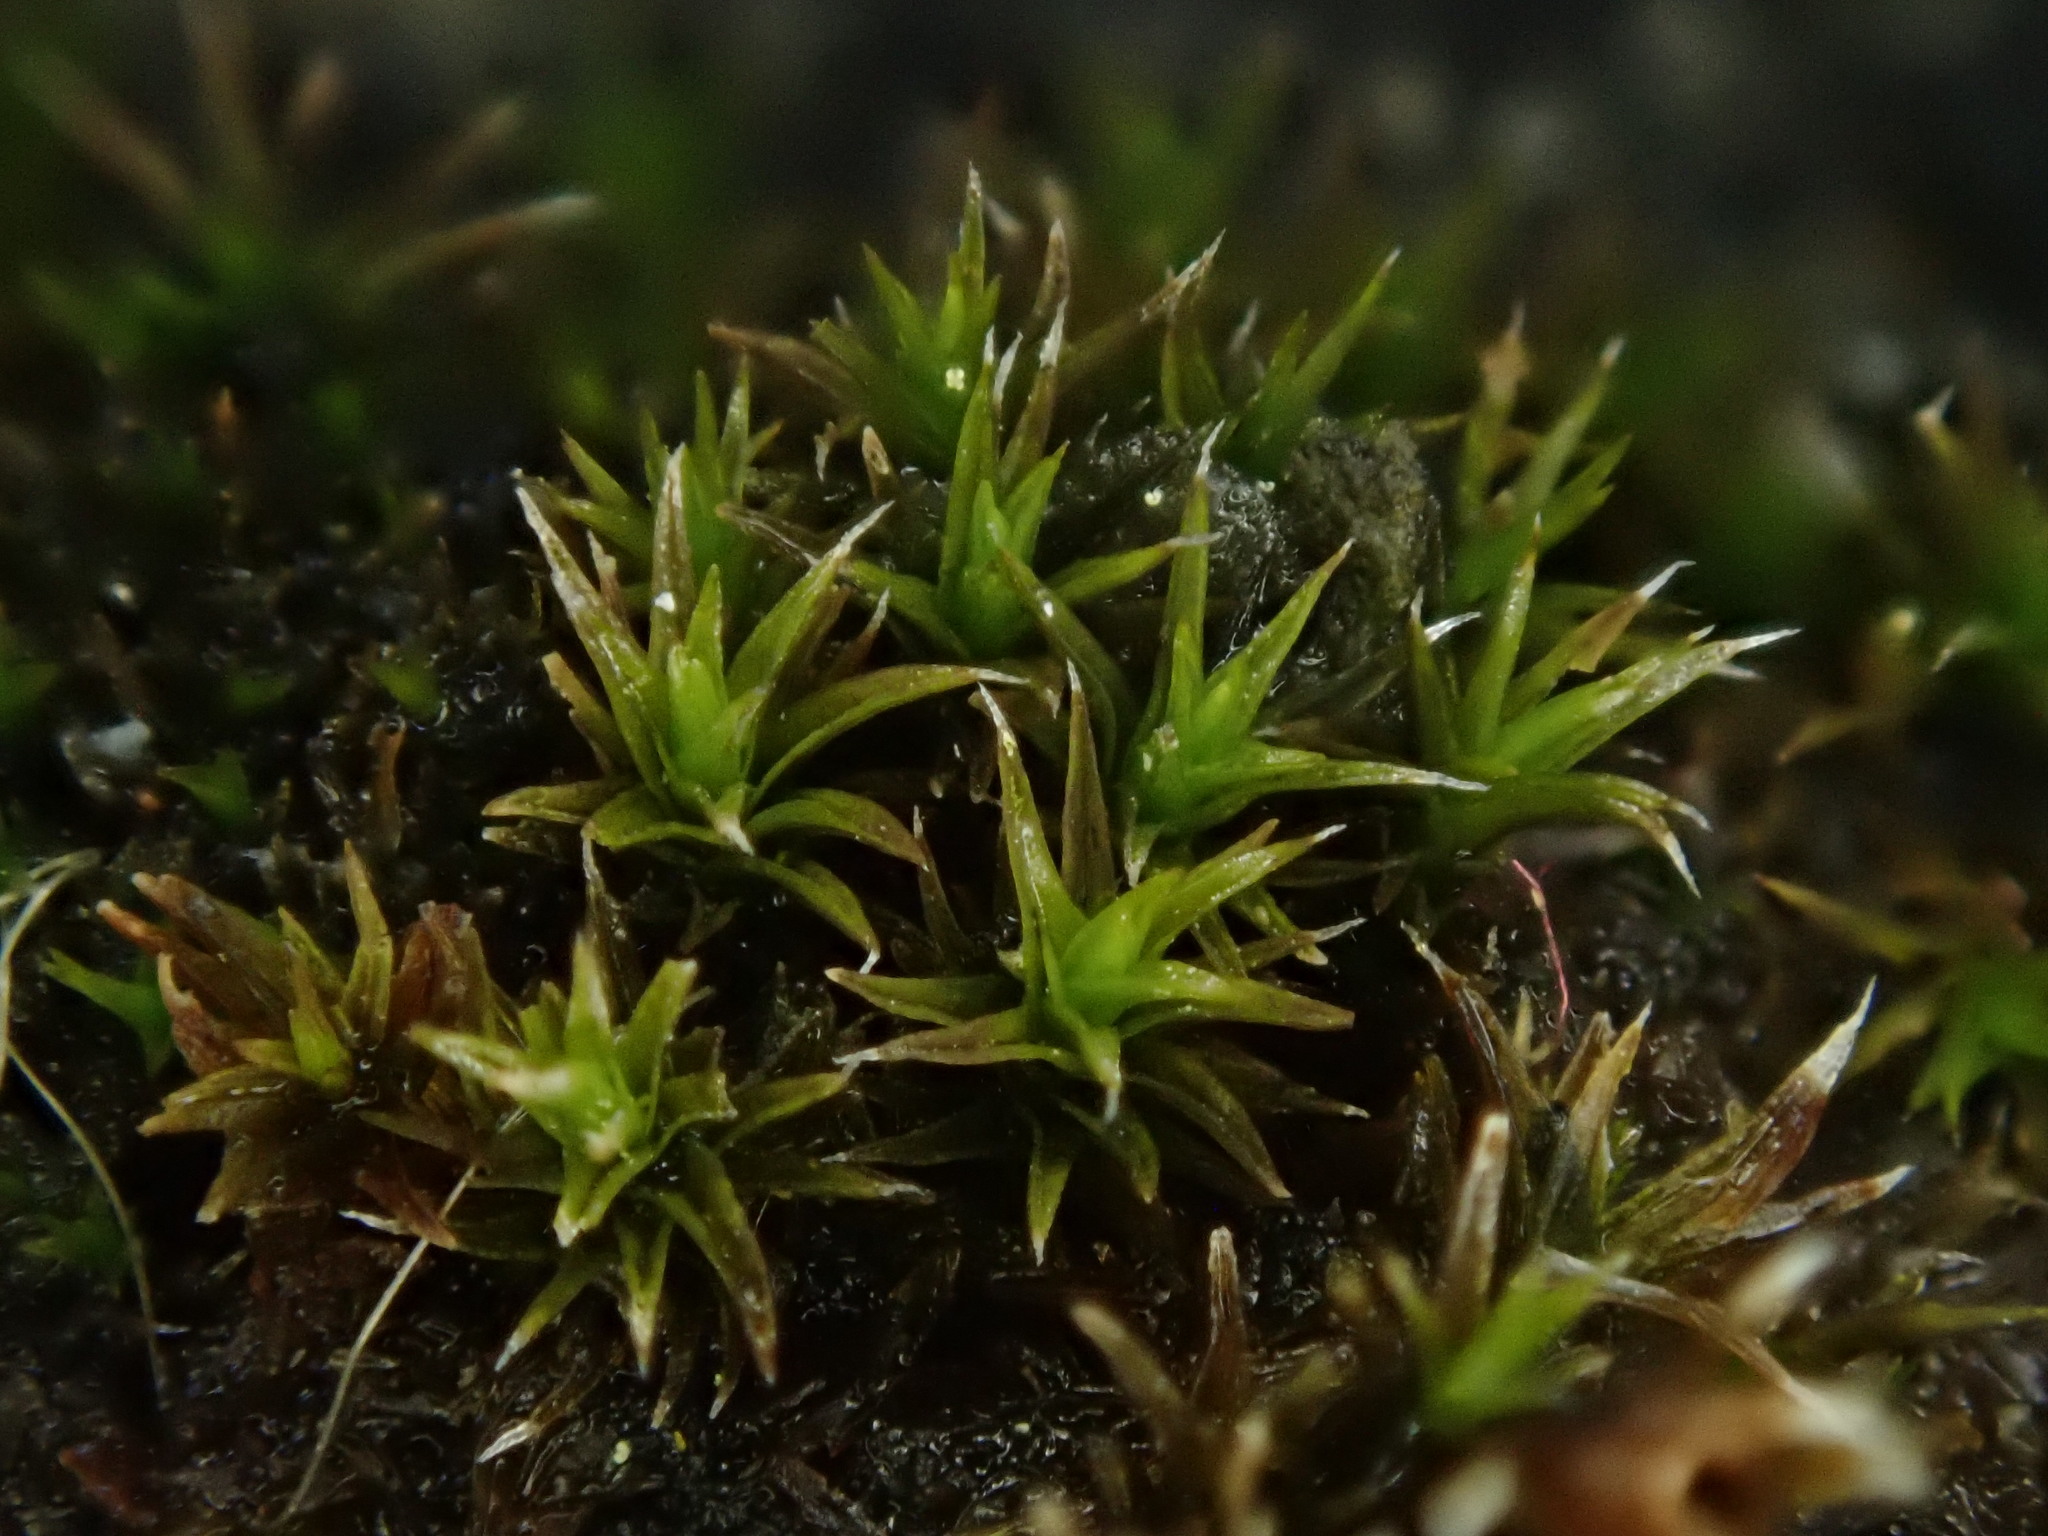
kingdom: Plantae
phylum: Bryophyta
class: Bryopsida
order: Orthotrichales
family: Orthotrichaceae
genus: Orthotrichum
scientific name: Orthotrichum diaphanum
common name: White-tipped bristle-moss
